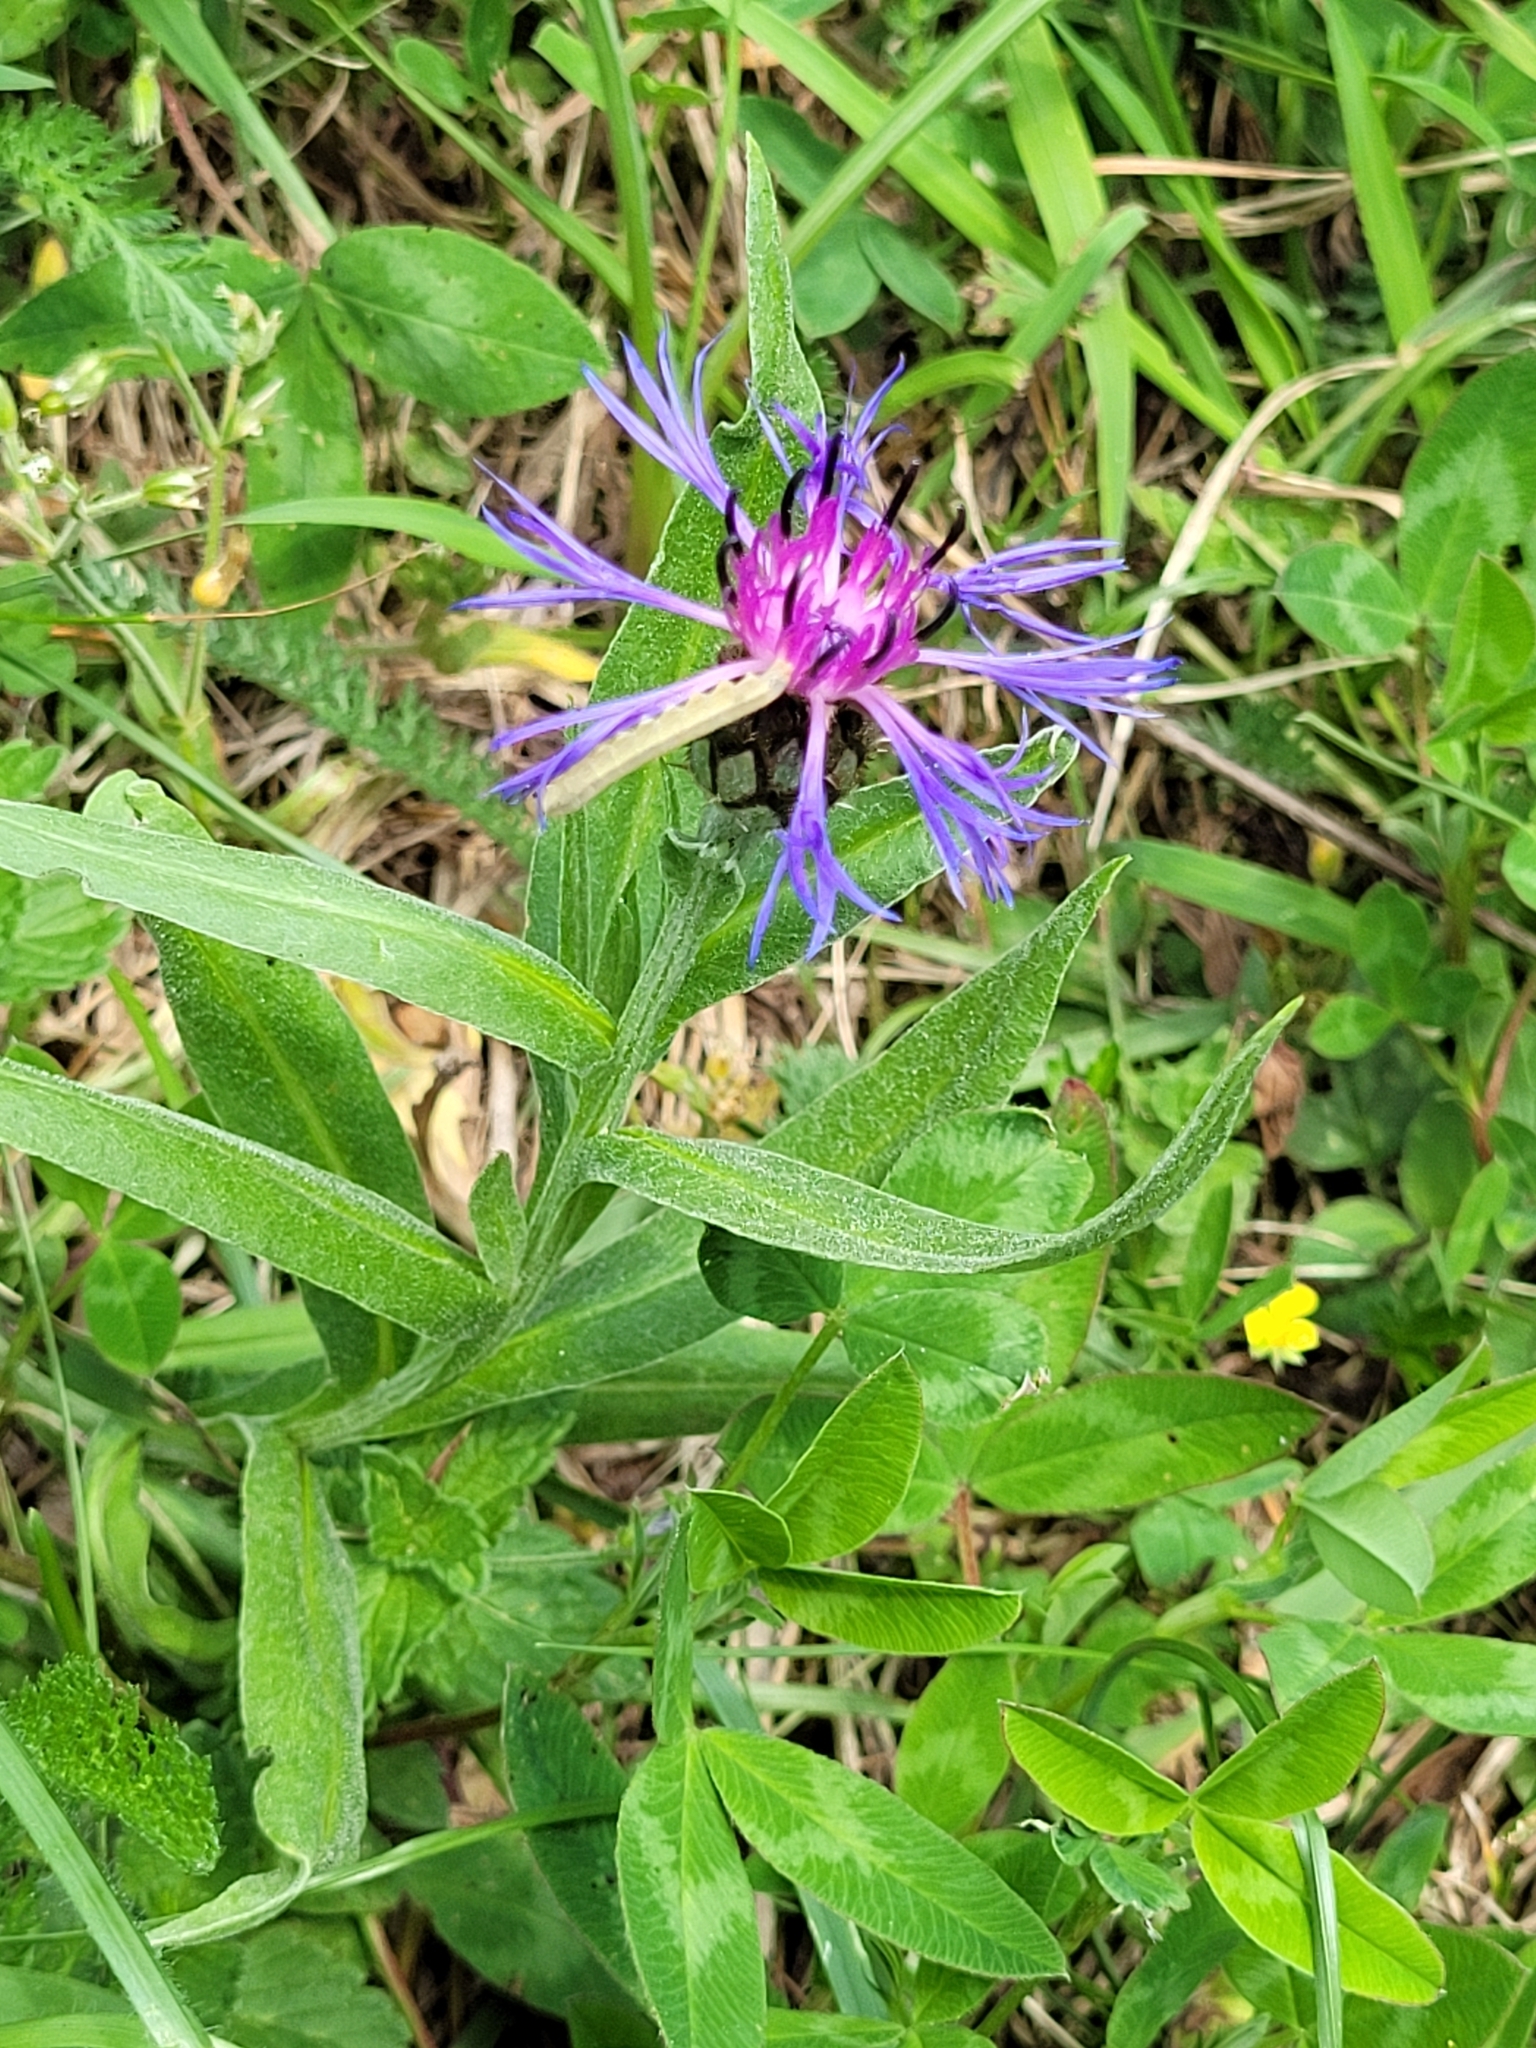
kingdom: Plantae
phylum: Tracheophyta
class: Magnoliopsida
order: Asterales
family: Asteraceae
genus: Centaurea
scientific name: Centaurea triumfettii
